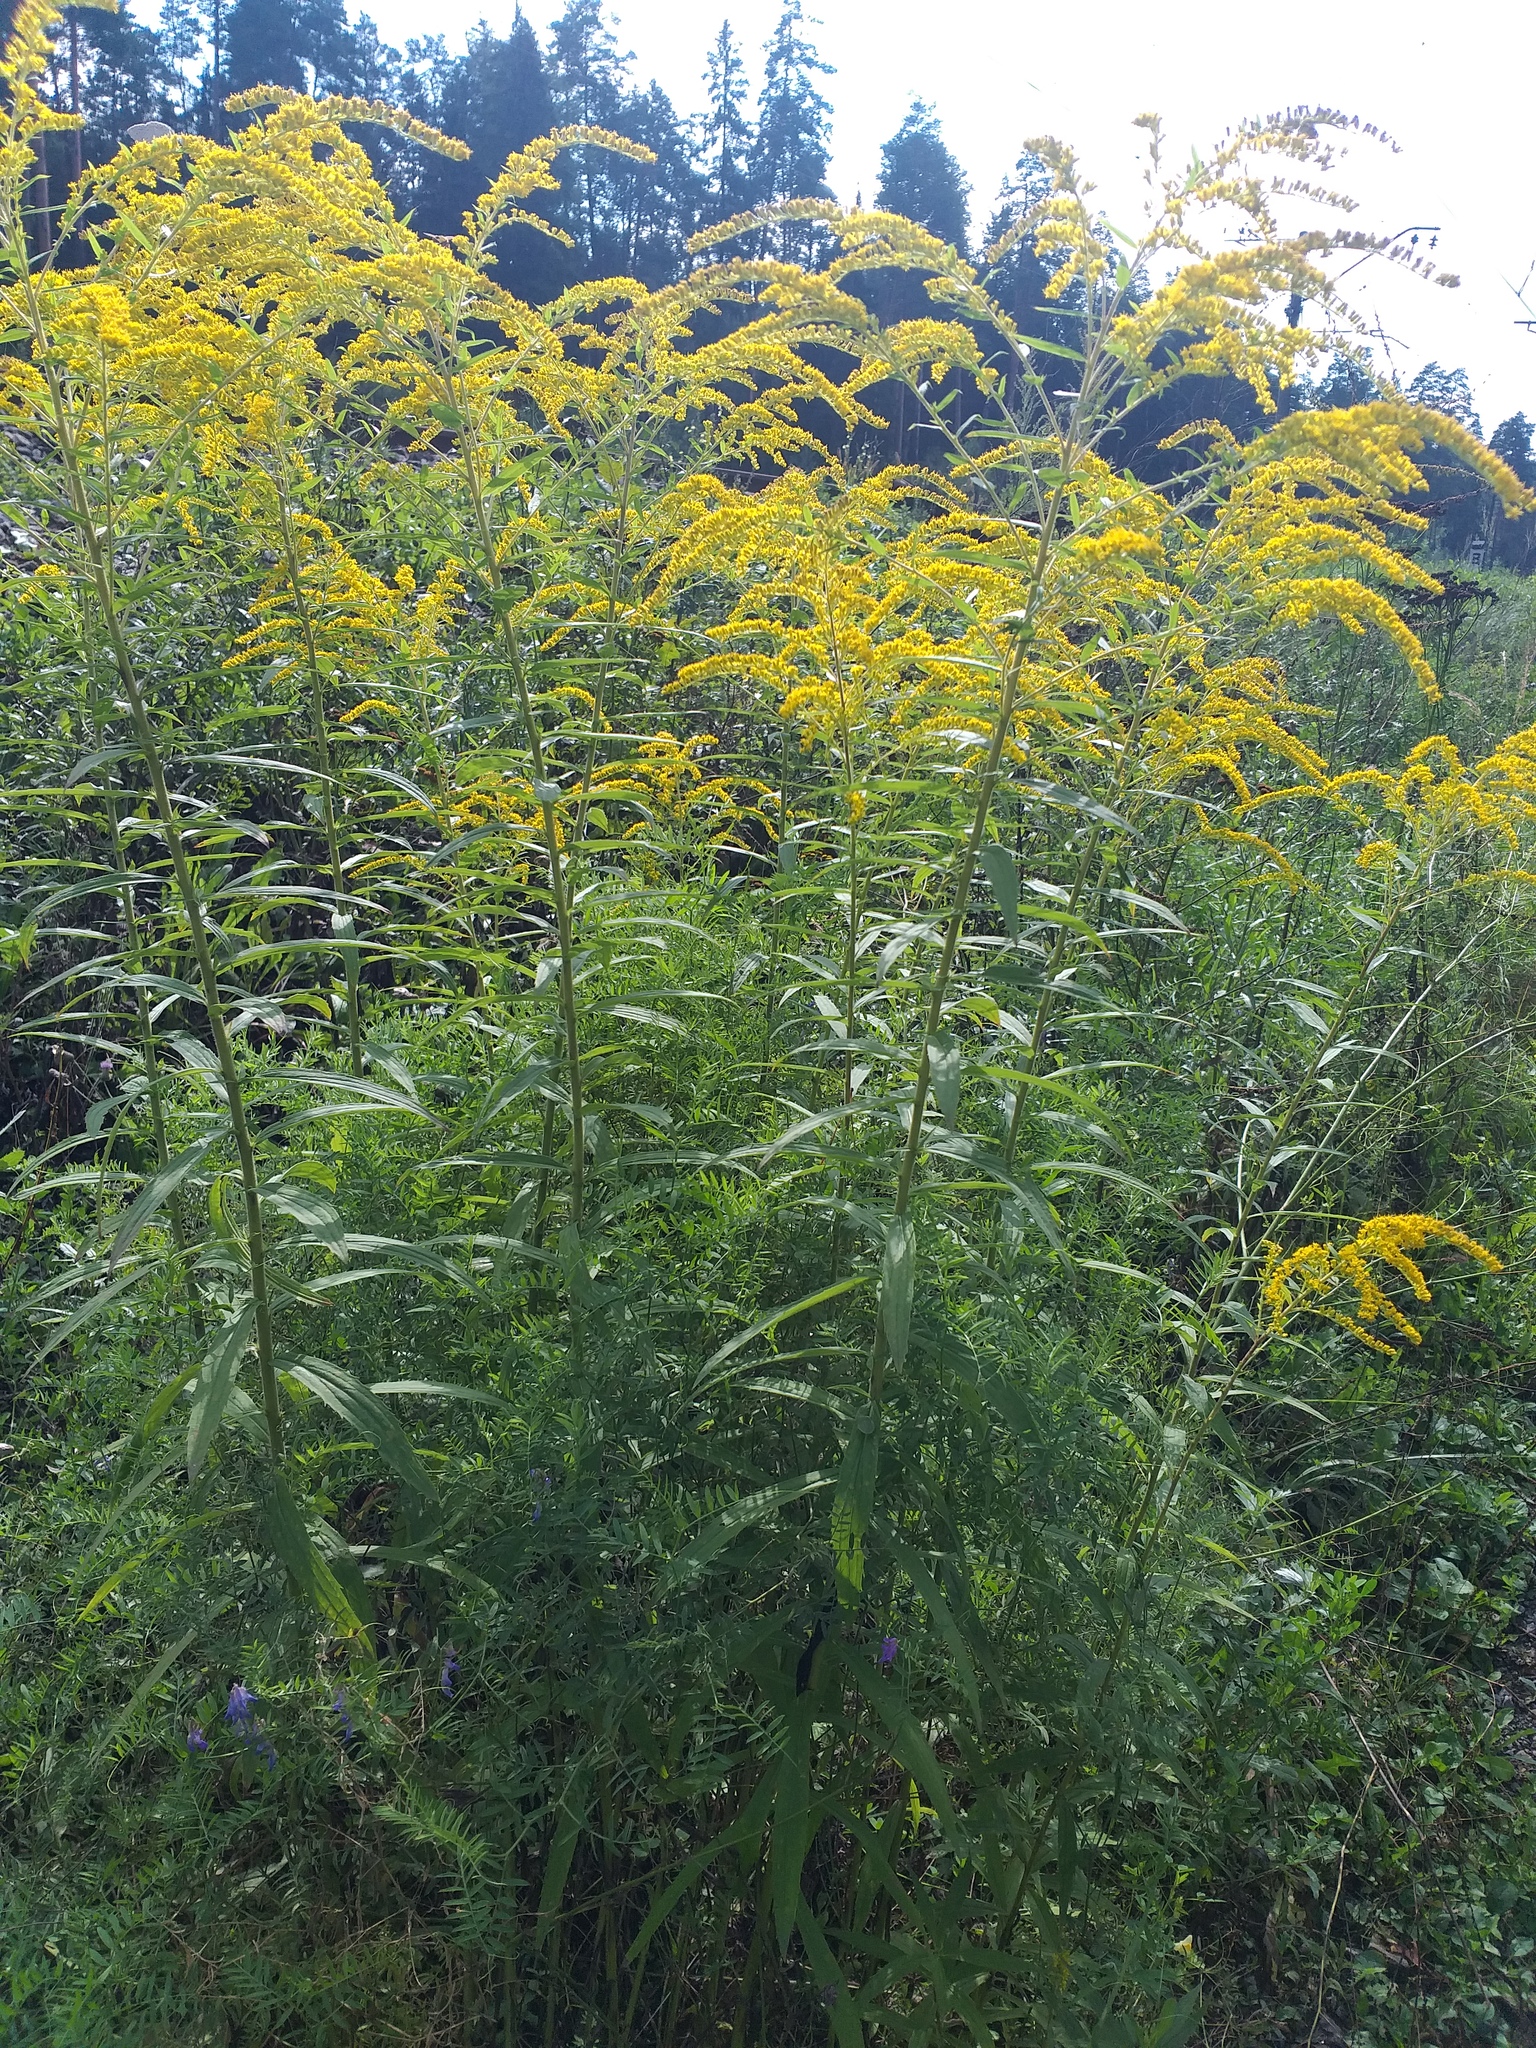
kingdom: Plantae
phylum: Tracheophyta
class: Magnoliopsida
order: Asterales
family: Asteraceae
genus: Solidago
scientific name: Solidago canadensis
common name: Canada goldenrod
